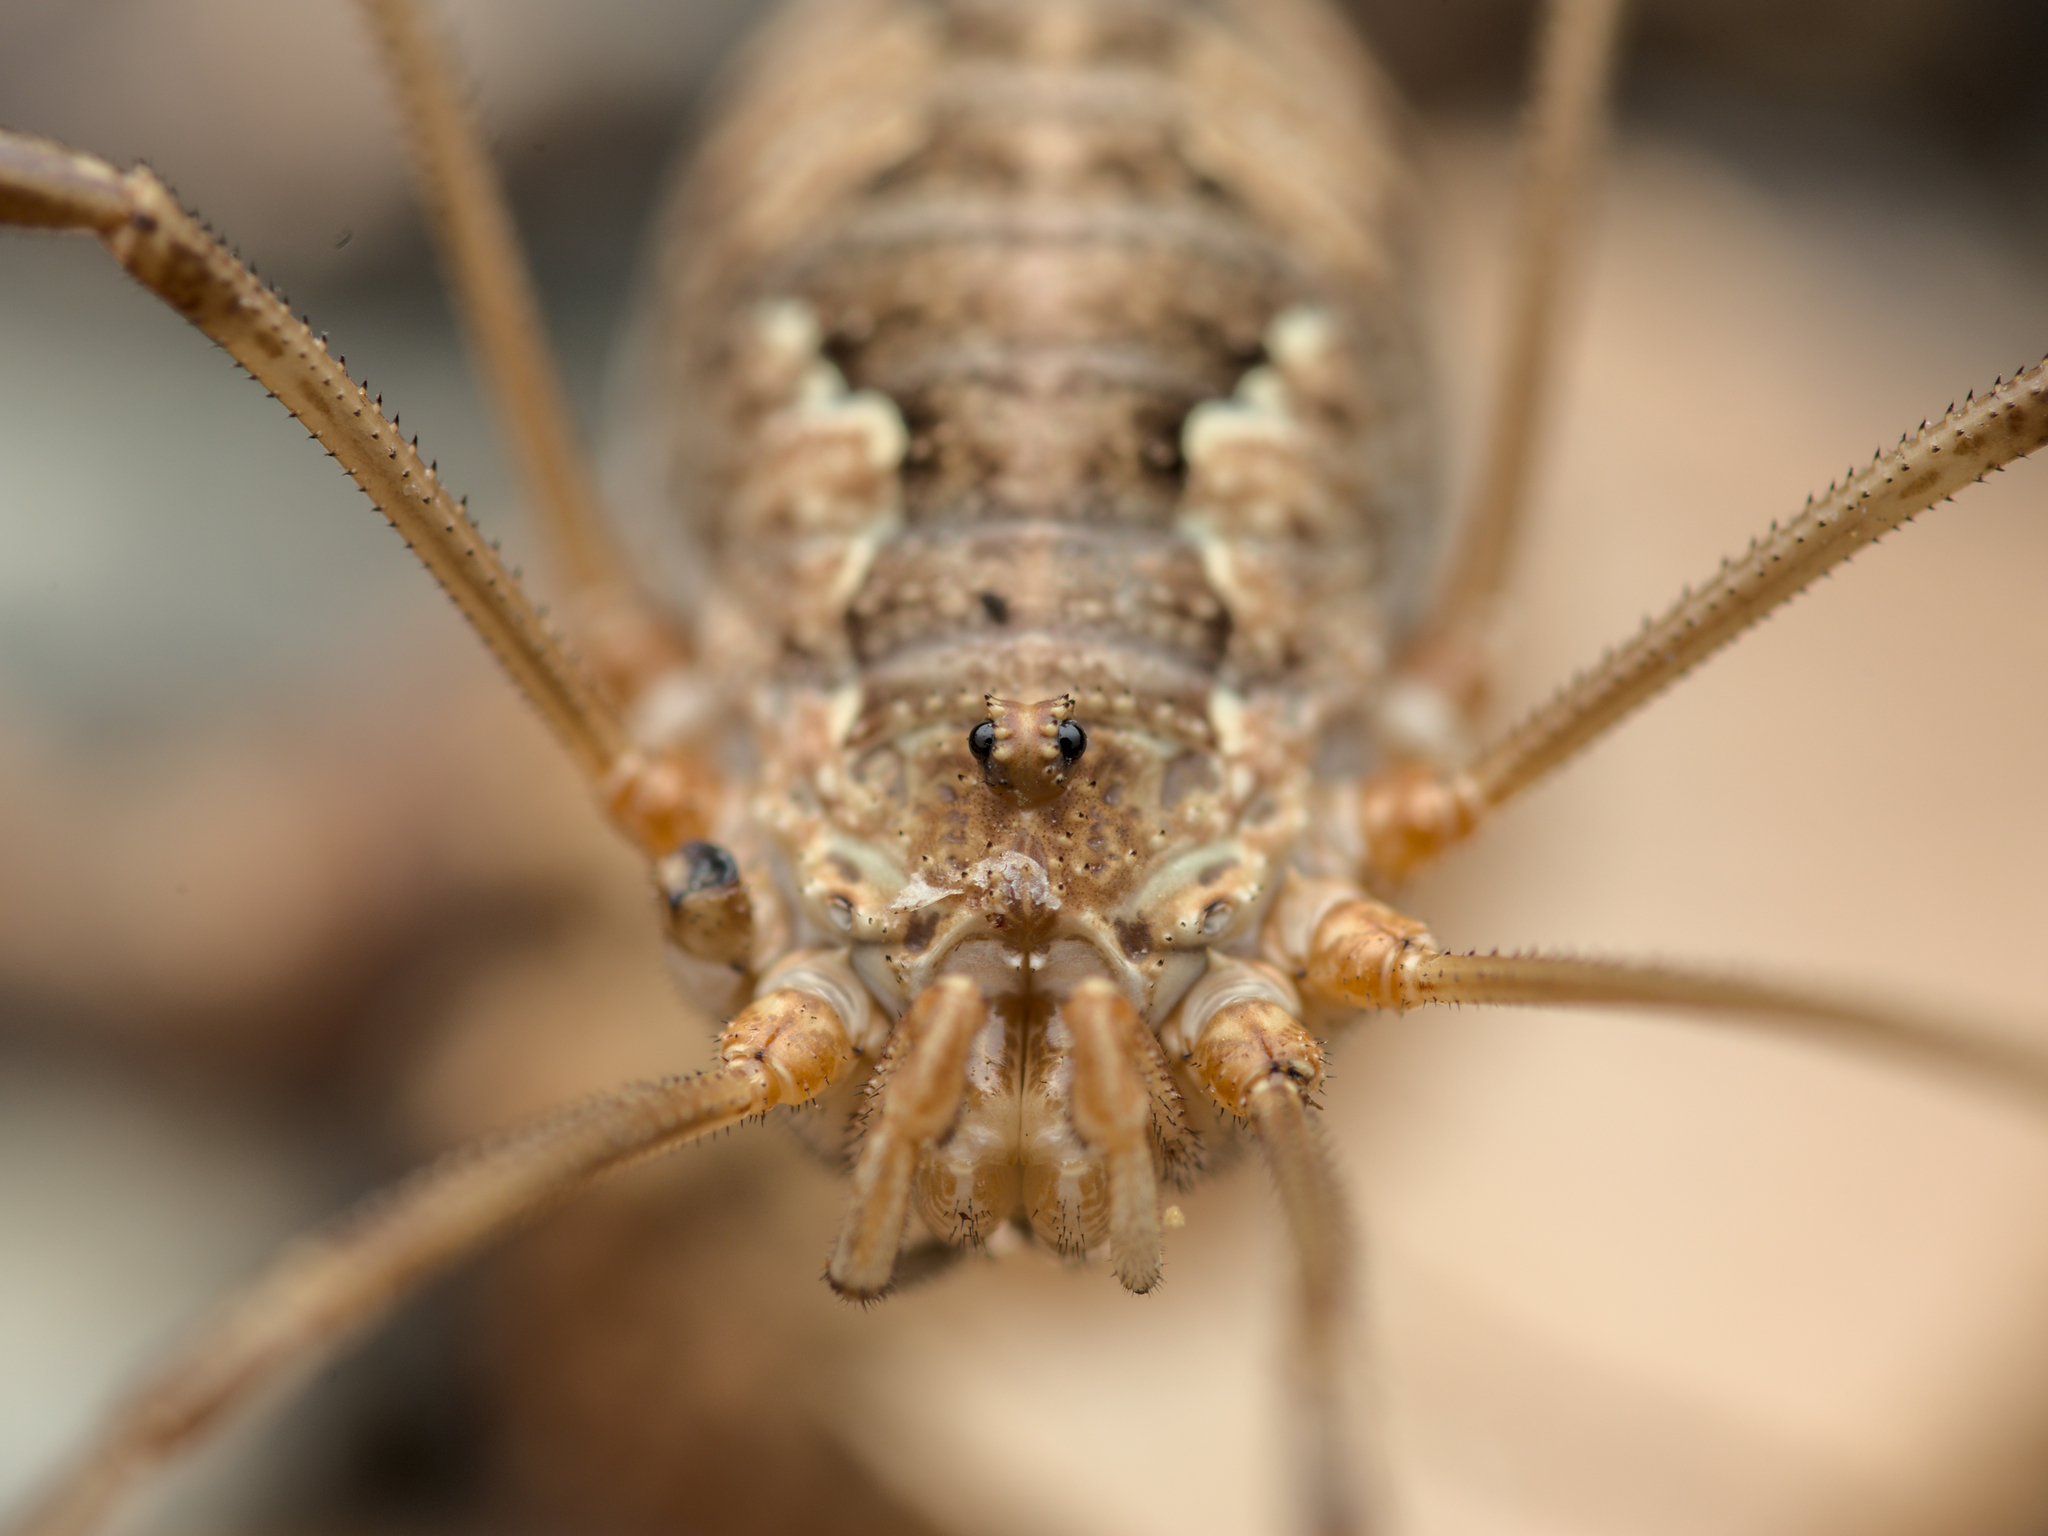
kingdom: Animalia
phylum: Arthropoda
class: Arachnida
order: Opiliones
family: Phalangiidae
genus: Phalangium
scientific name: Phalangium opilio
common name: Daddy longleg
